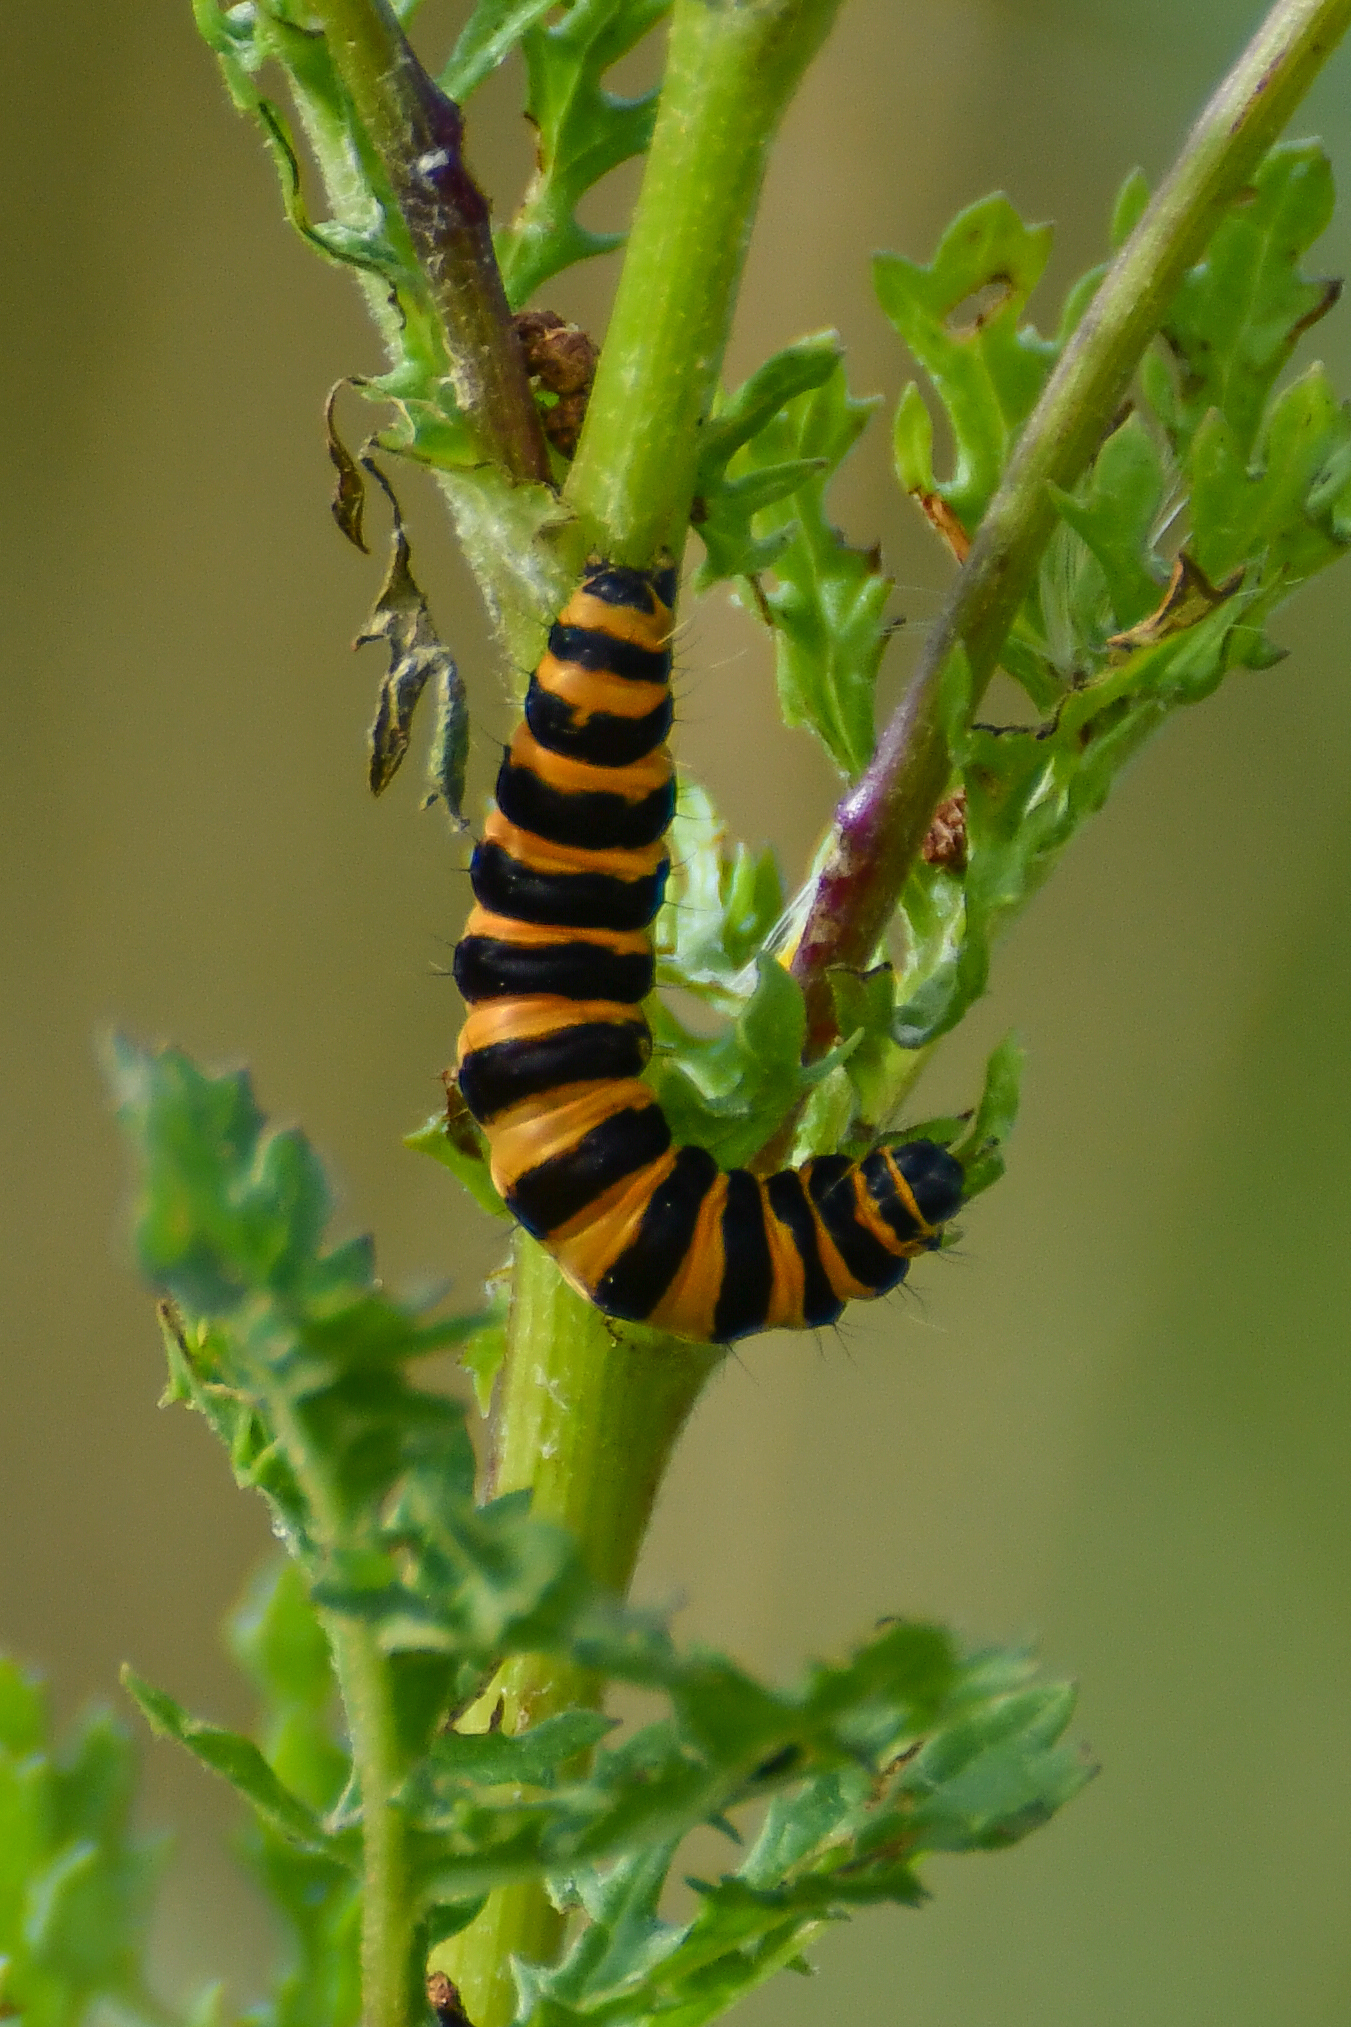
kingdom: Animalia
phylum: Arthropoda
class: Insecta
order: Lepidoptera
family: Erebidae
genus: Tyria
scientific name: Tyria jacobaeae
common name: Cinnabar
